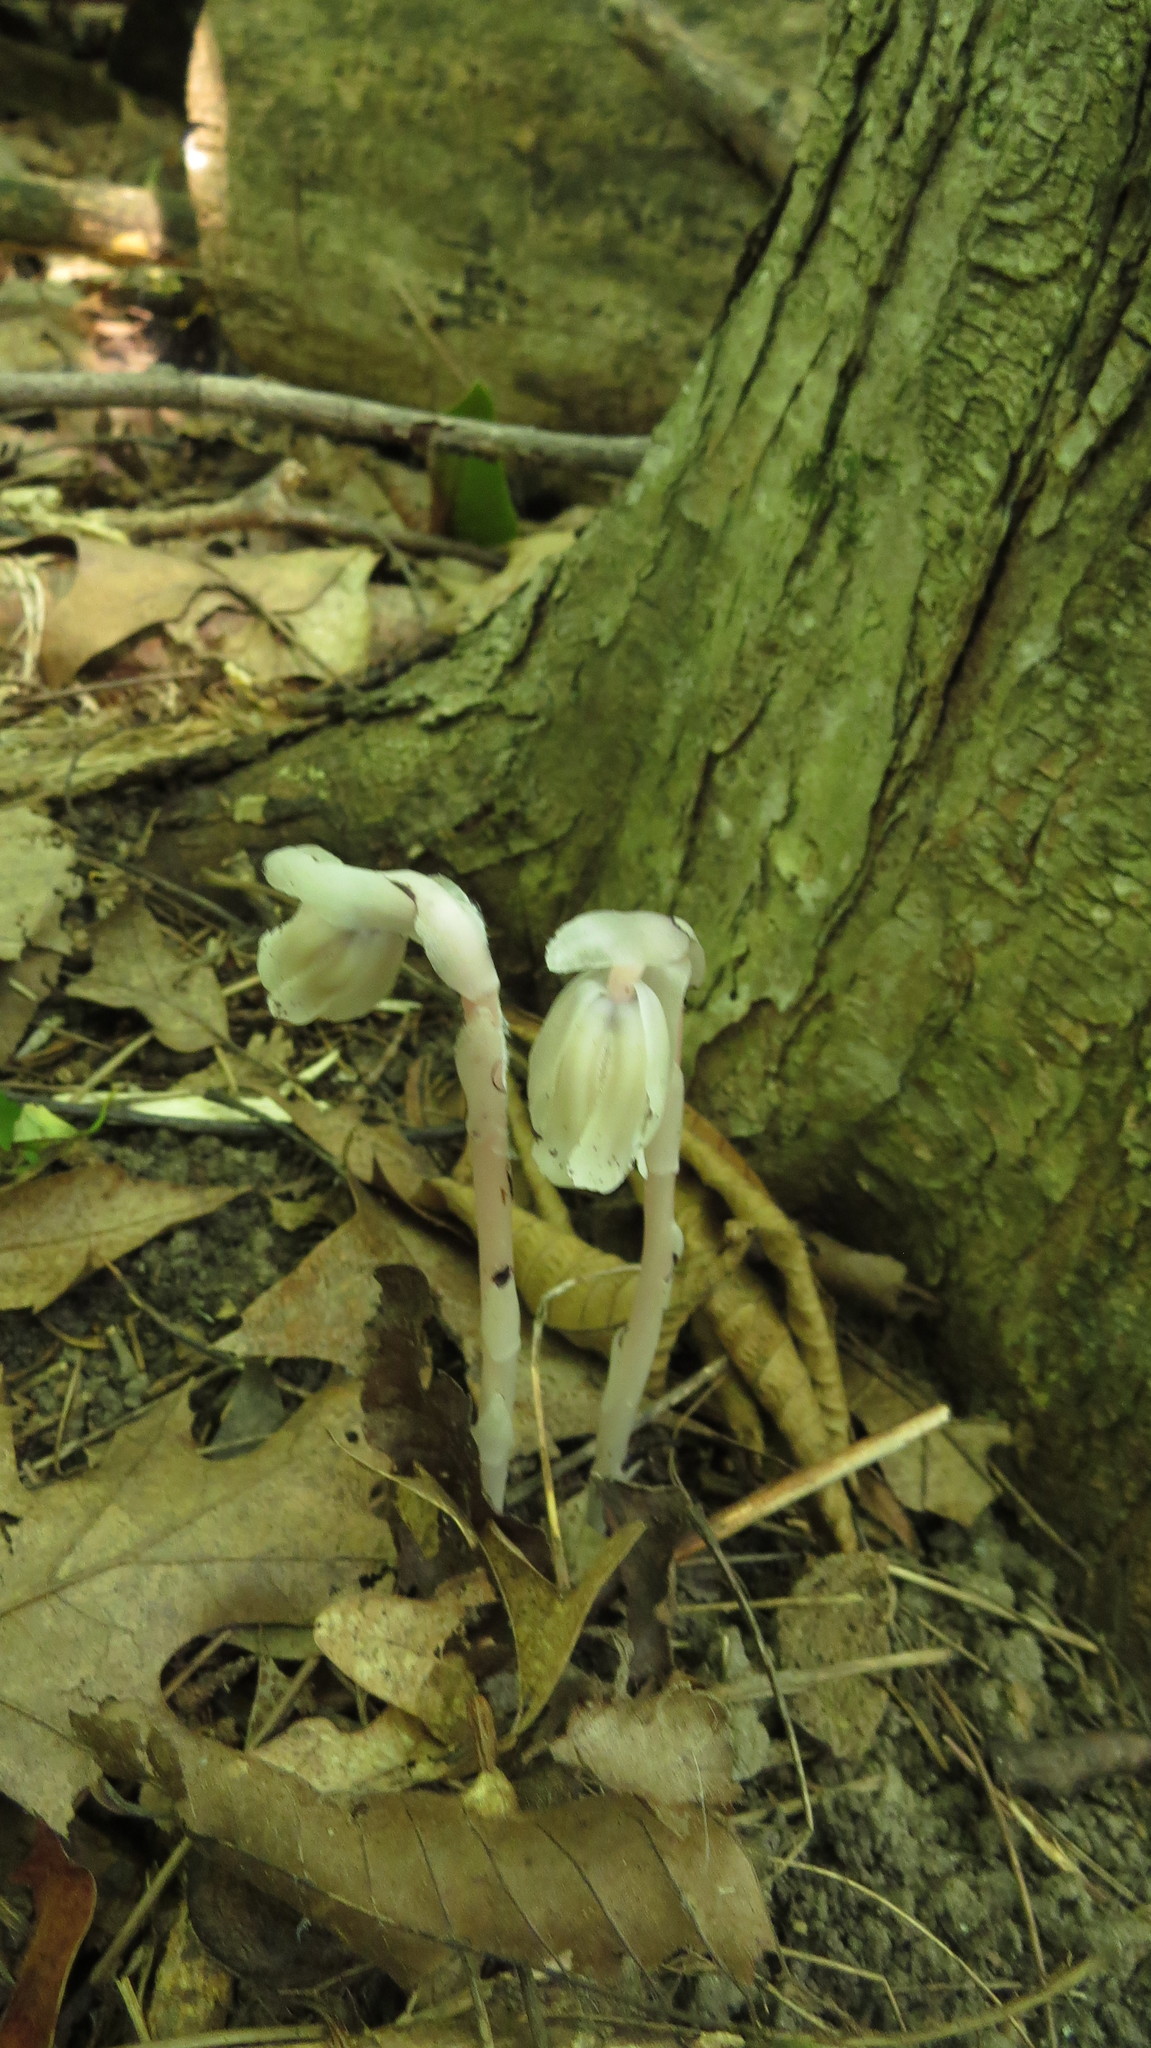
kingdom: Plantae
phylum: Tracheophyta
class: Magnoliopsida
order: Ericales
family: Ericaceae
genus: Monotropa
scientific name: Monotropa uniflora
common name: Convulsion root
